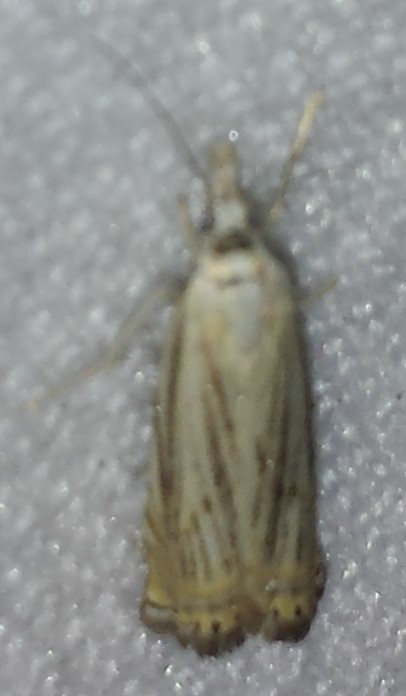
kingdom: Animalia
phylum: Arthropoda
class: Insecta
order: Lepidoptera
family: Crambidae
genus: Chrysoteuchia
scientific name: Chrysoteuchia topiarius
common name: Topiary grass-veneer
